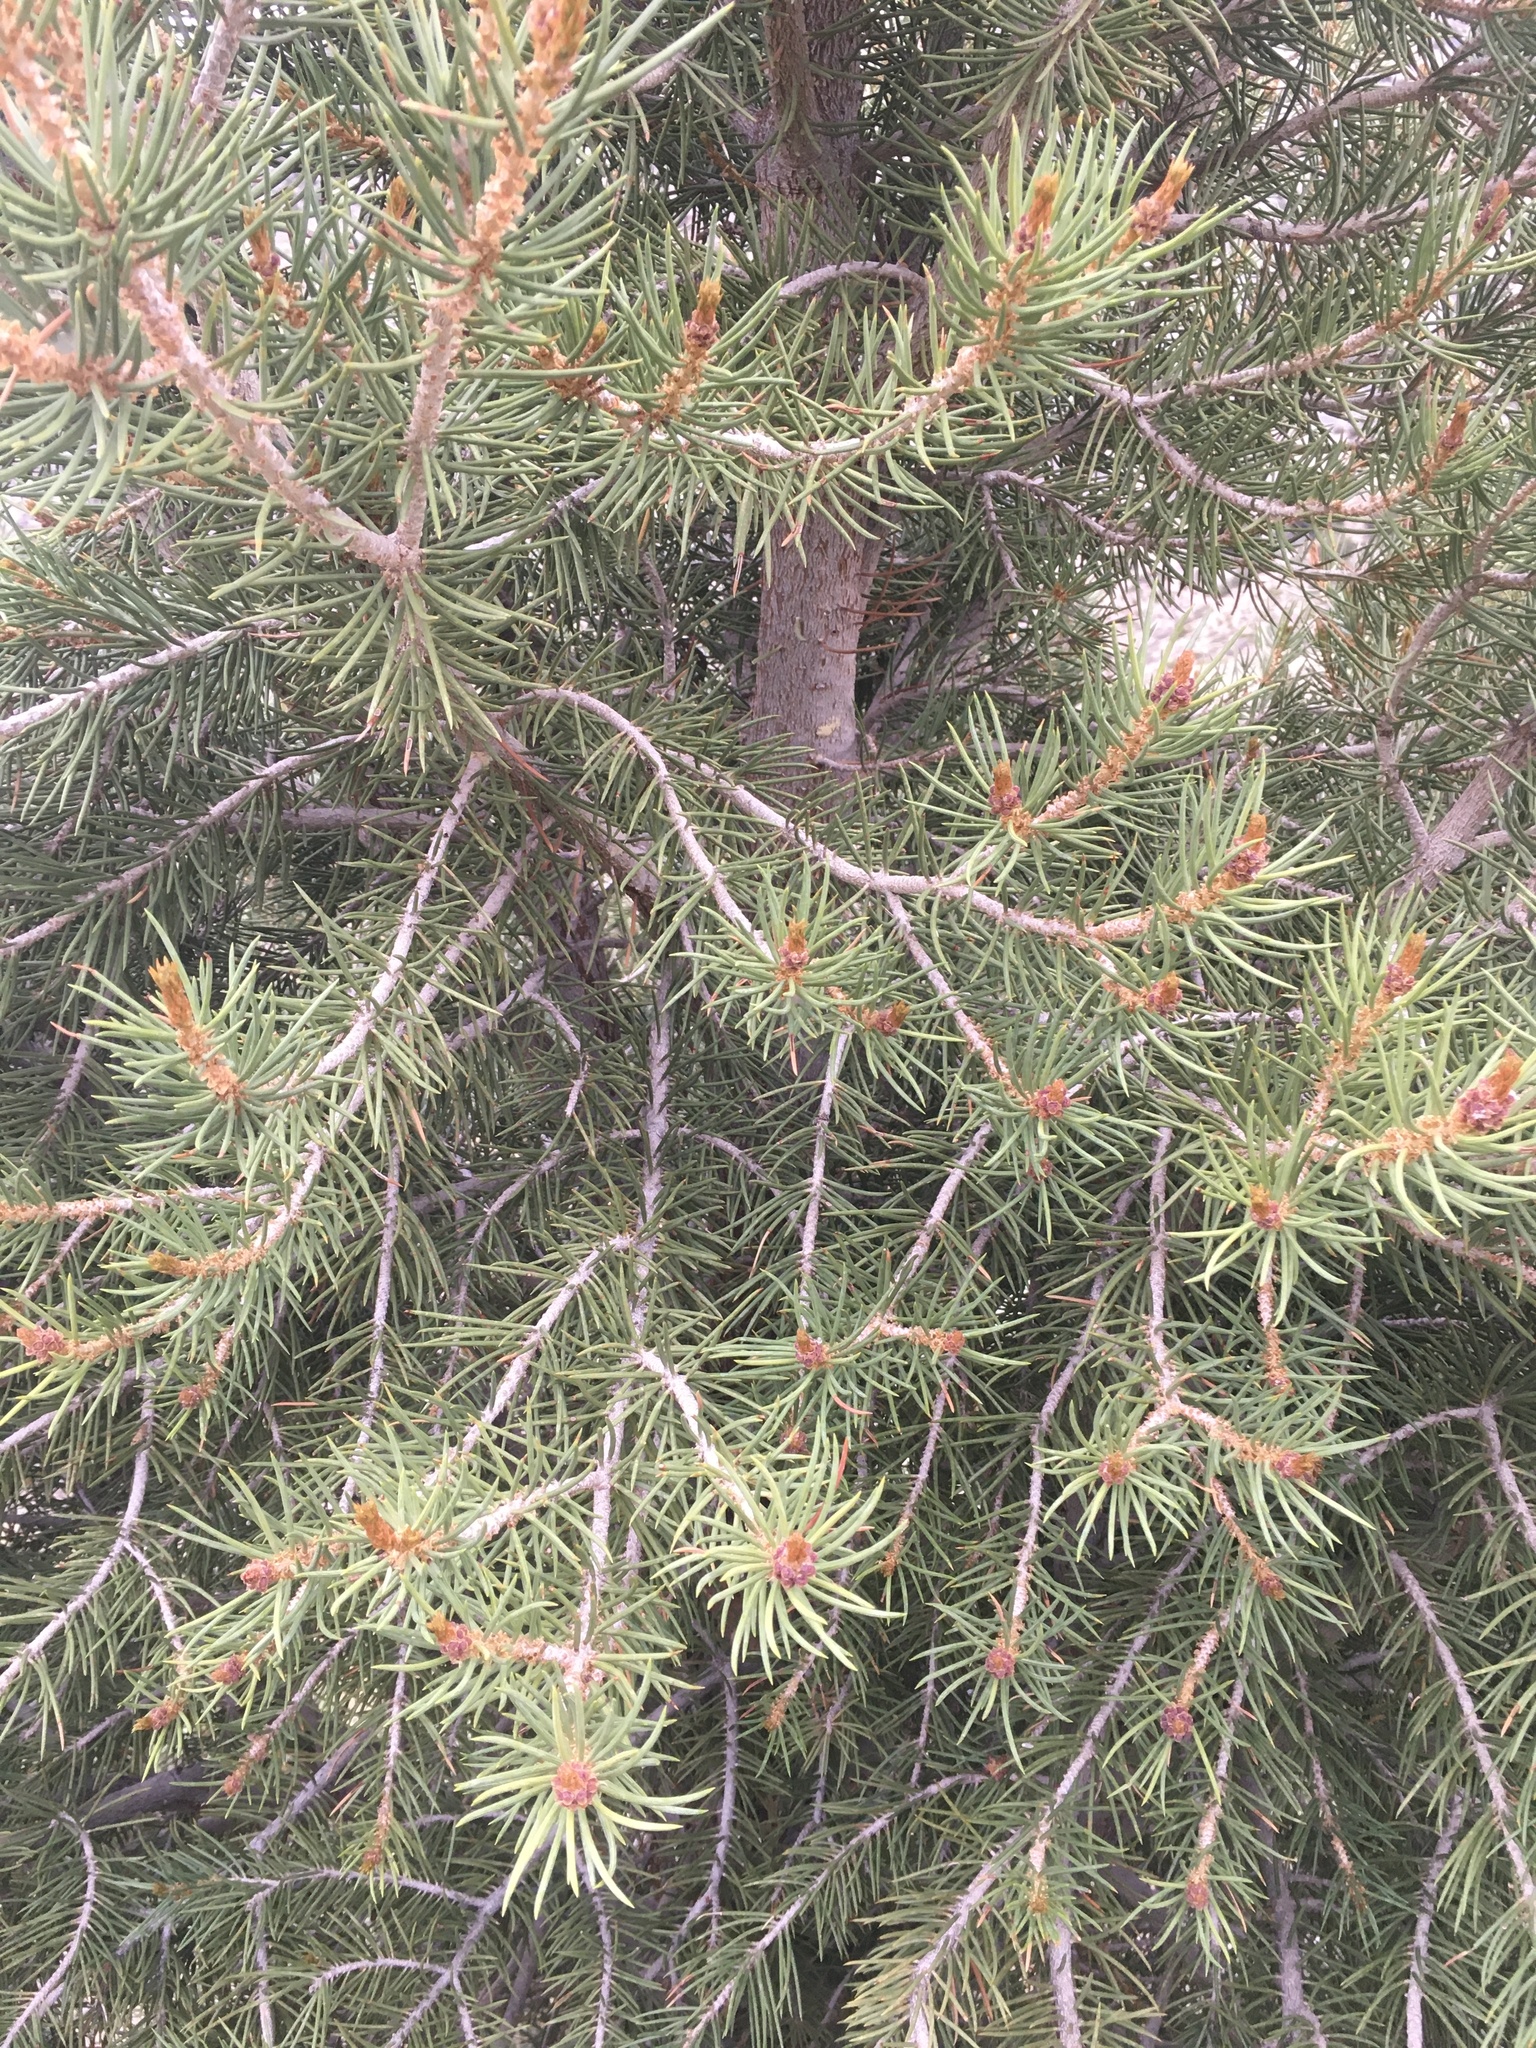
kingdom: Plantae
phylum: Tracheophyta
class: Pinopsida
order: Pinales
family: Pinaceae
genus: Pinus
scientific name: Pinus monophylla
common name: One-leaved nut pine
